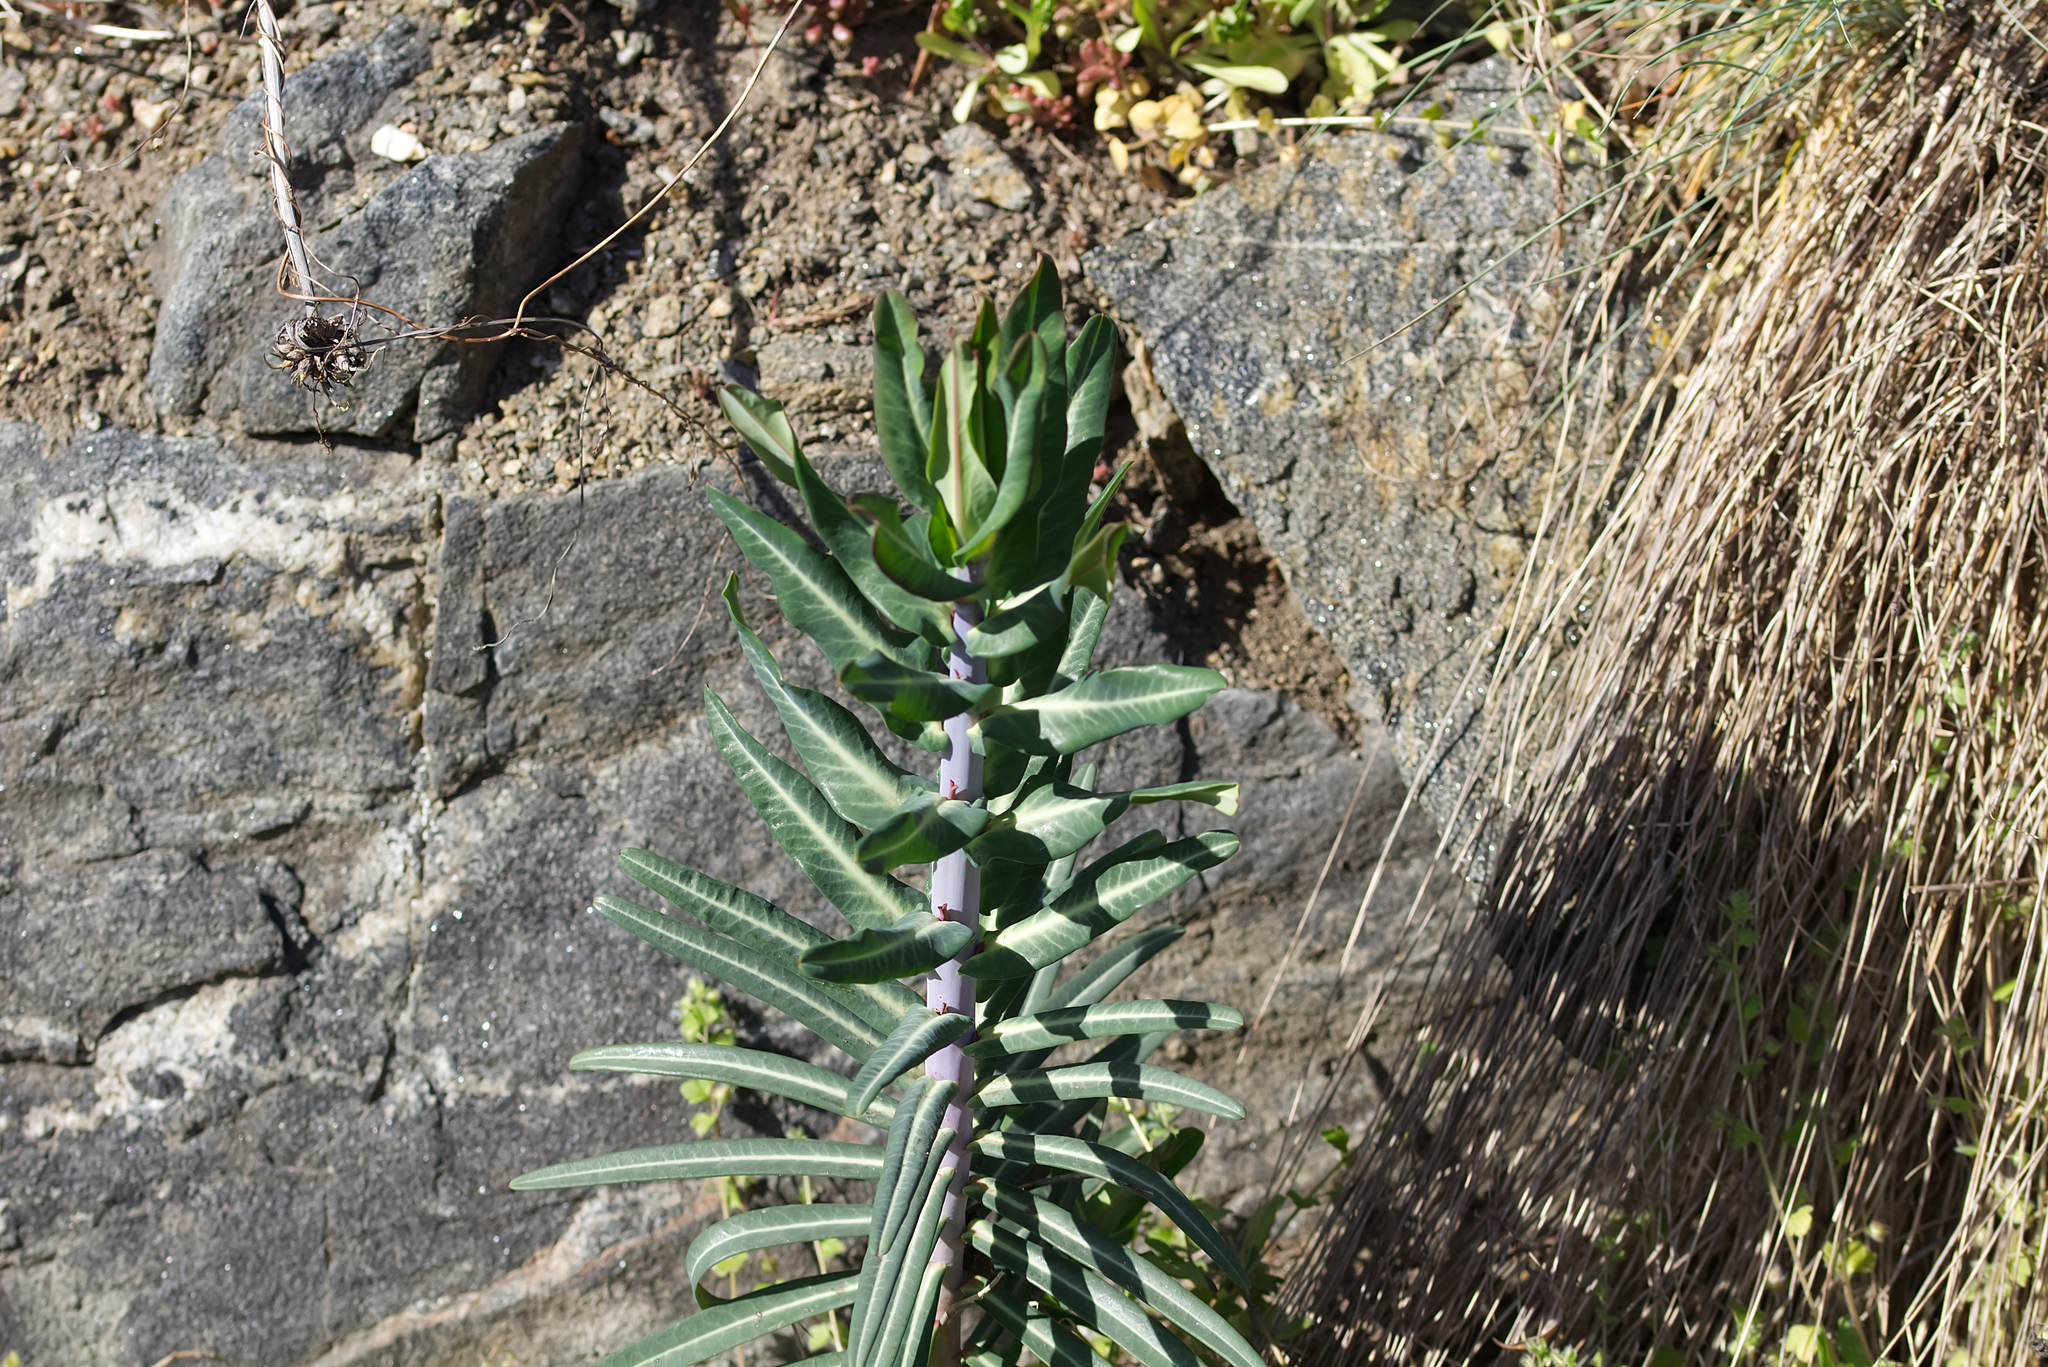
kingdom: Plantae
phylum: Tracheophyta
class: Magnoliopsida
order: Malpighiales
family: Euphorbiaceae
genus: Euphorbia
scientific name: Euphorbia lathyris
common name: Caper spurge
